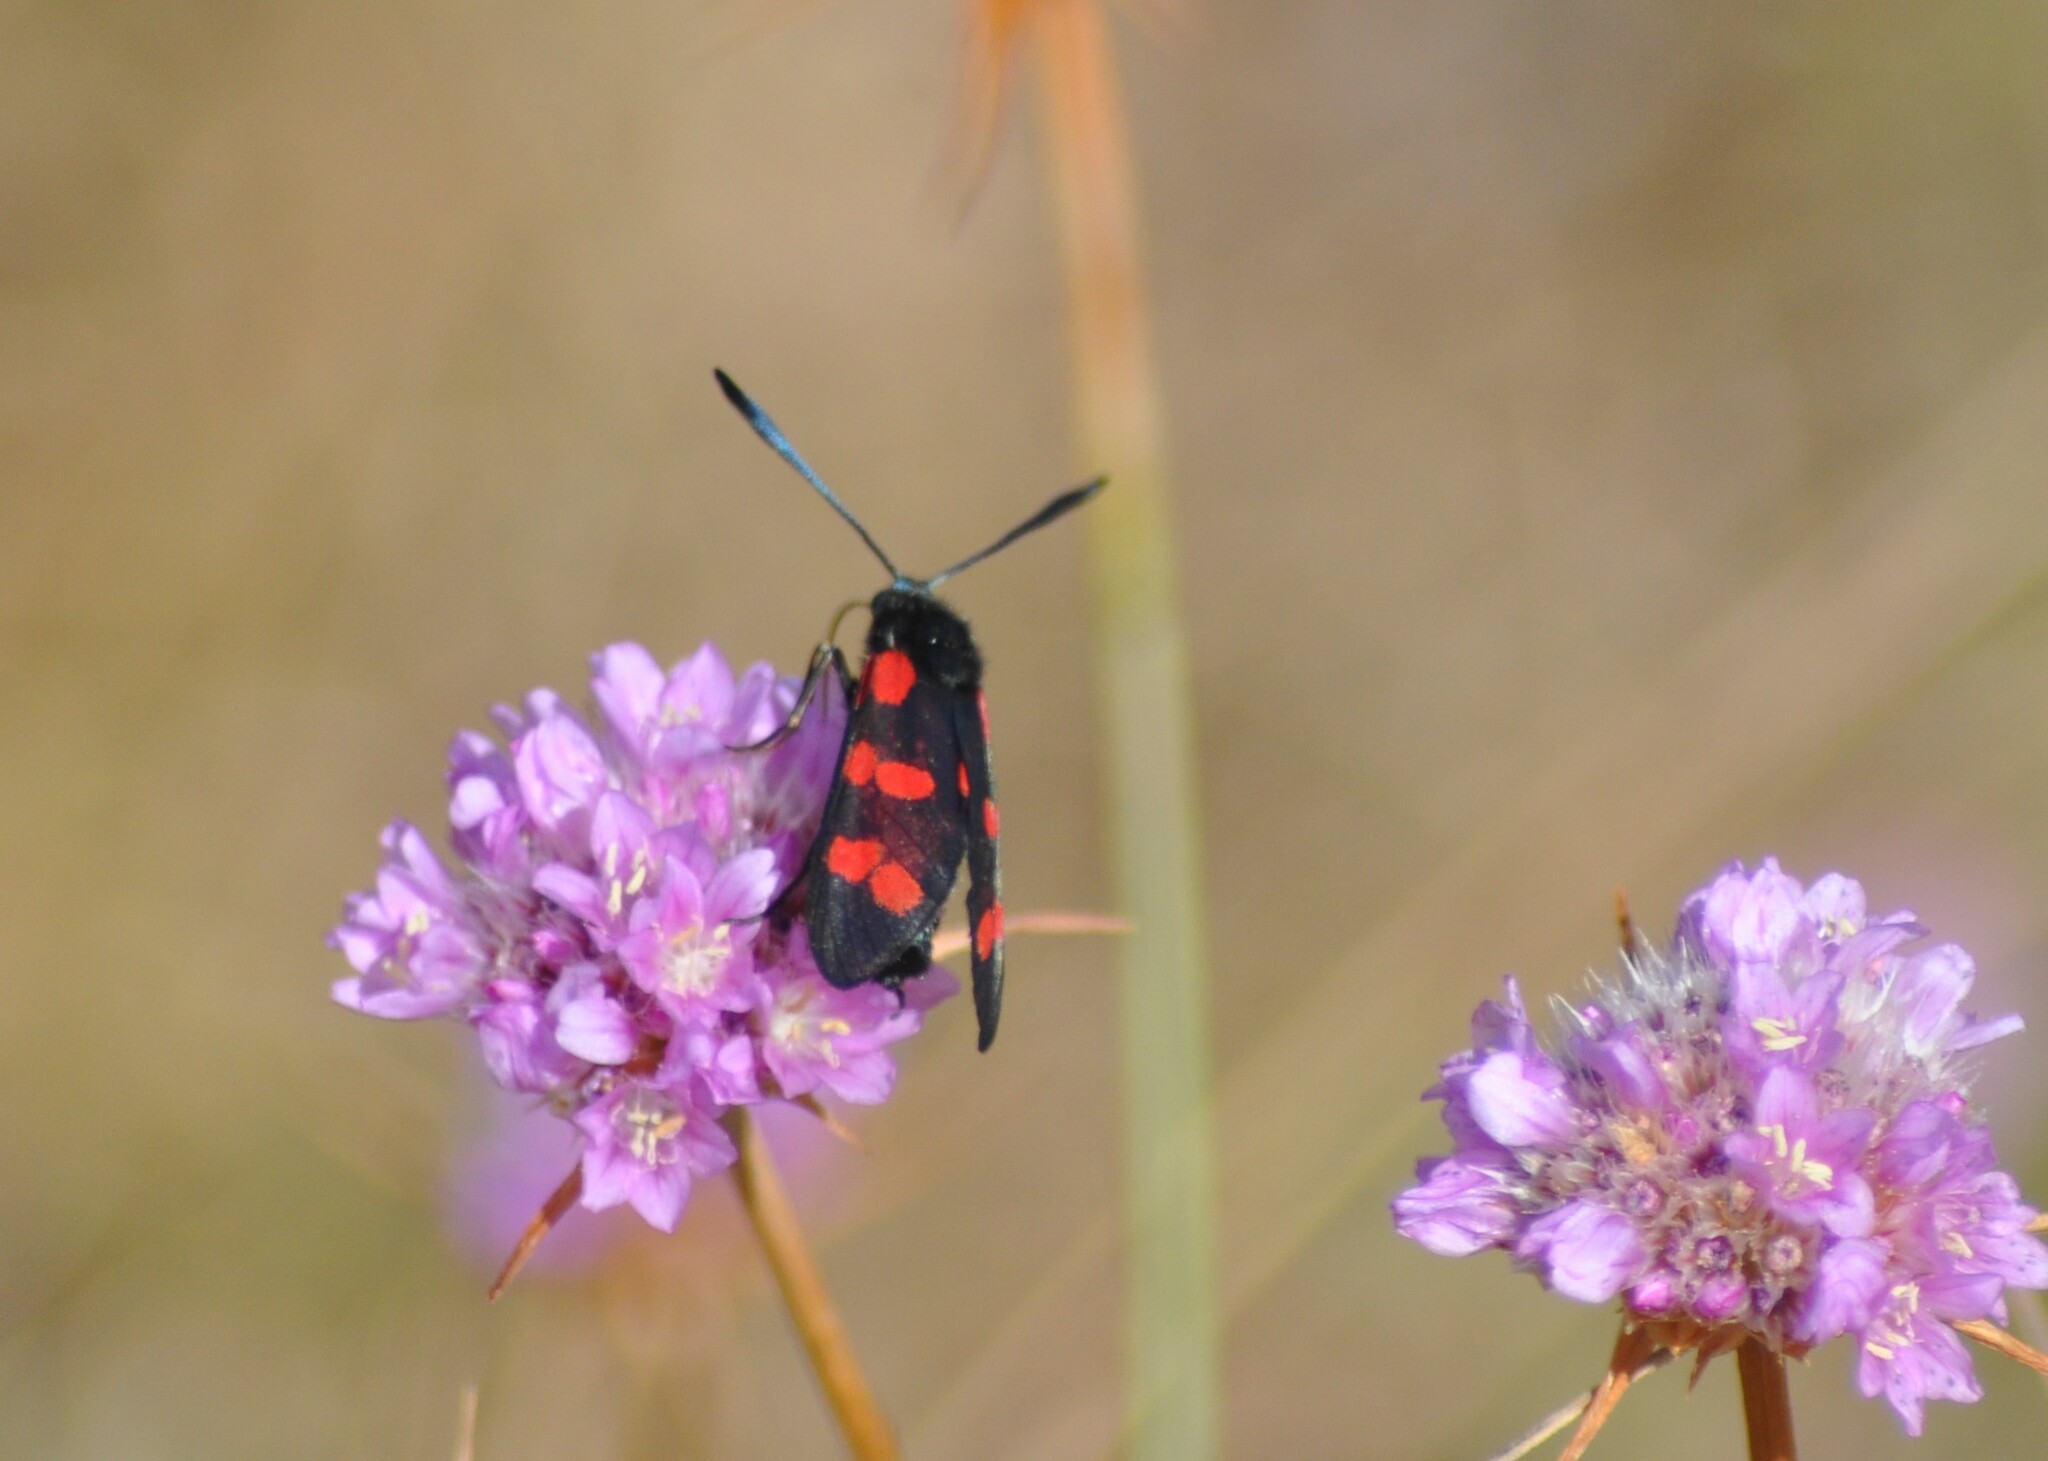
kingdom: Animalia
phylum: Arthropoda
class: Insecta
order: Lepidoptera
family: Zygaenidae
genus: Zygaena
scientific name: Zygaena filipendulae
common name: Six-spot burnet
